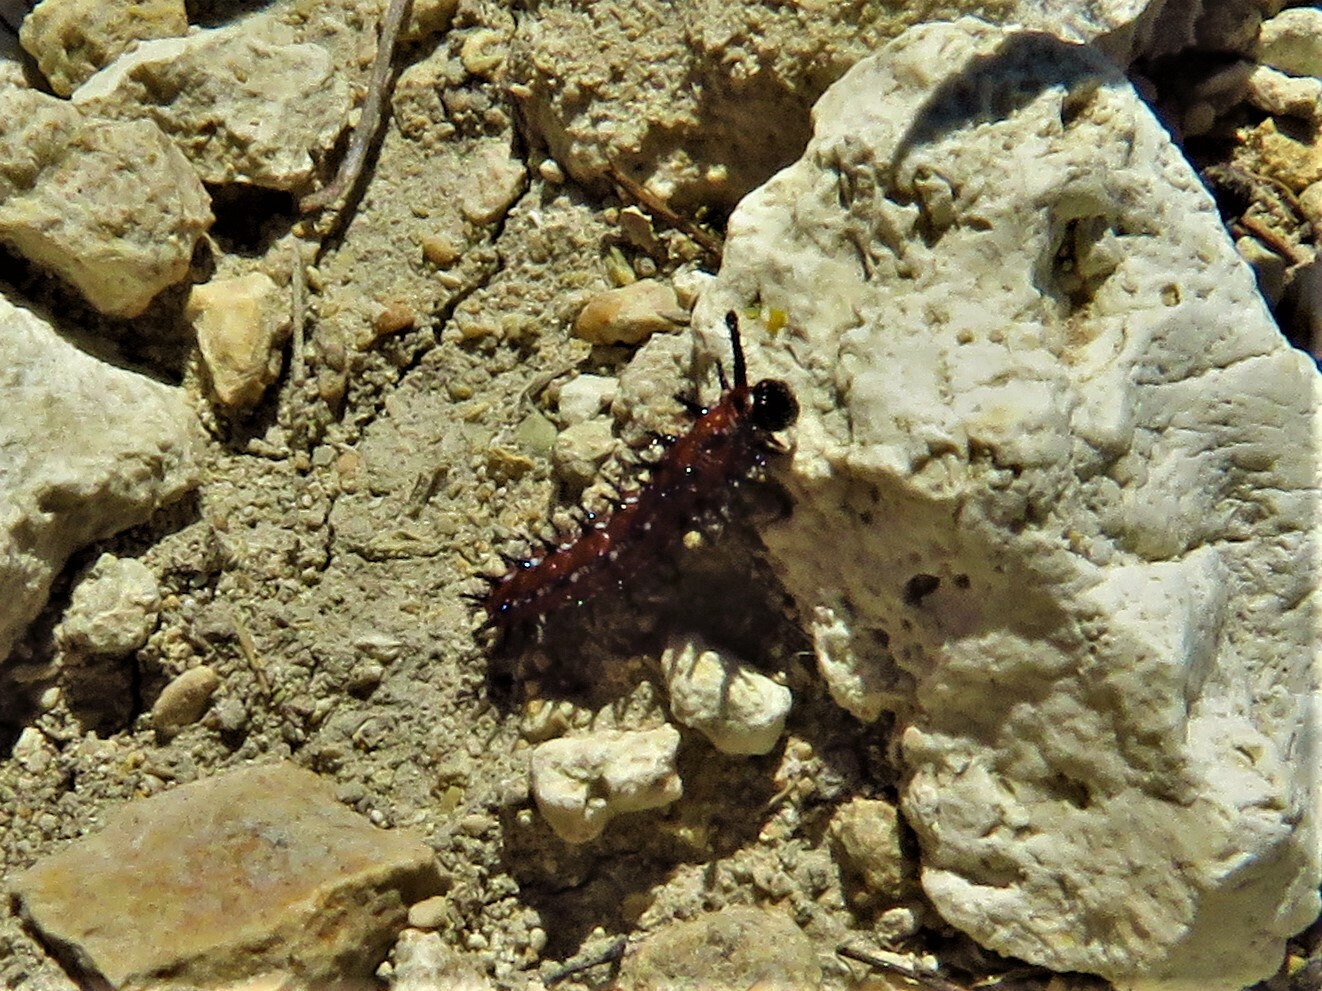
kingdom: Animalia
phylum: Arthropoda
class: Insecta
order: Lepidoptera
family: Nymphalidae
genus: Euptoieta
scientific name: Euptoieta claudia
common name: Variegated fritillary
